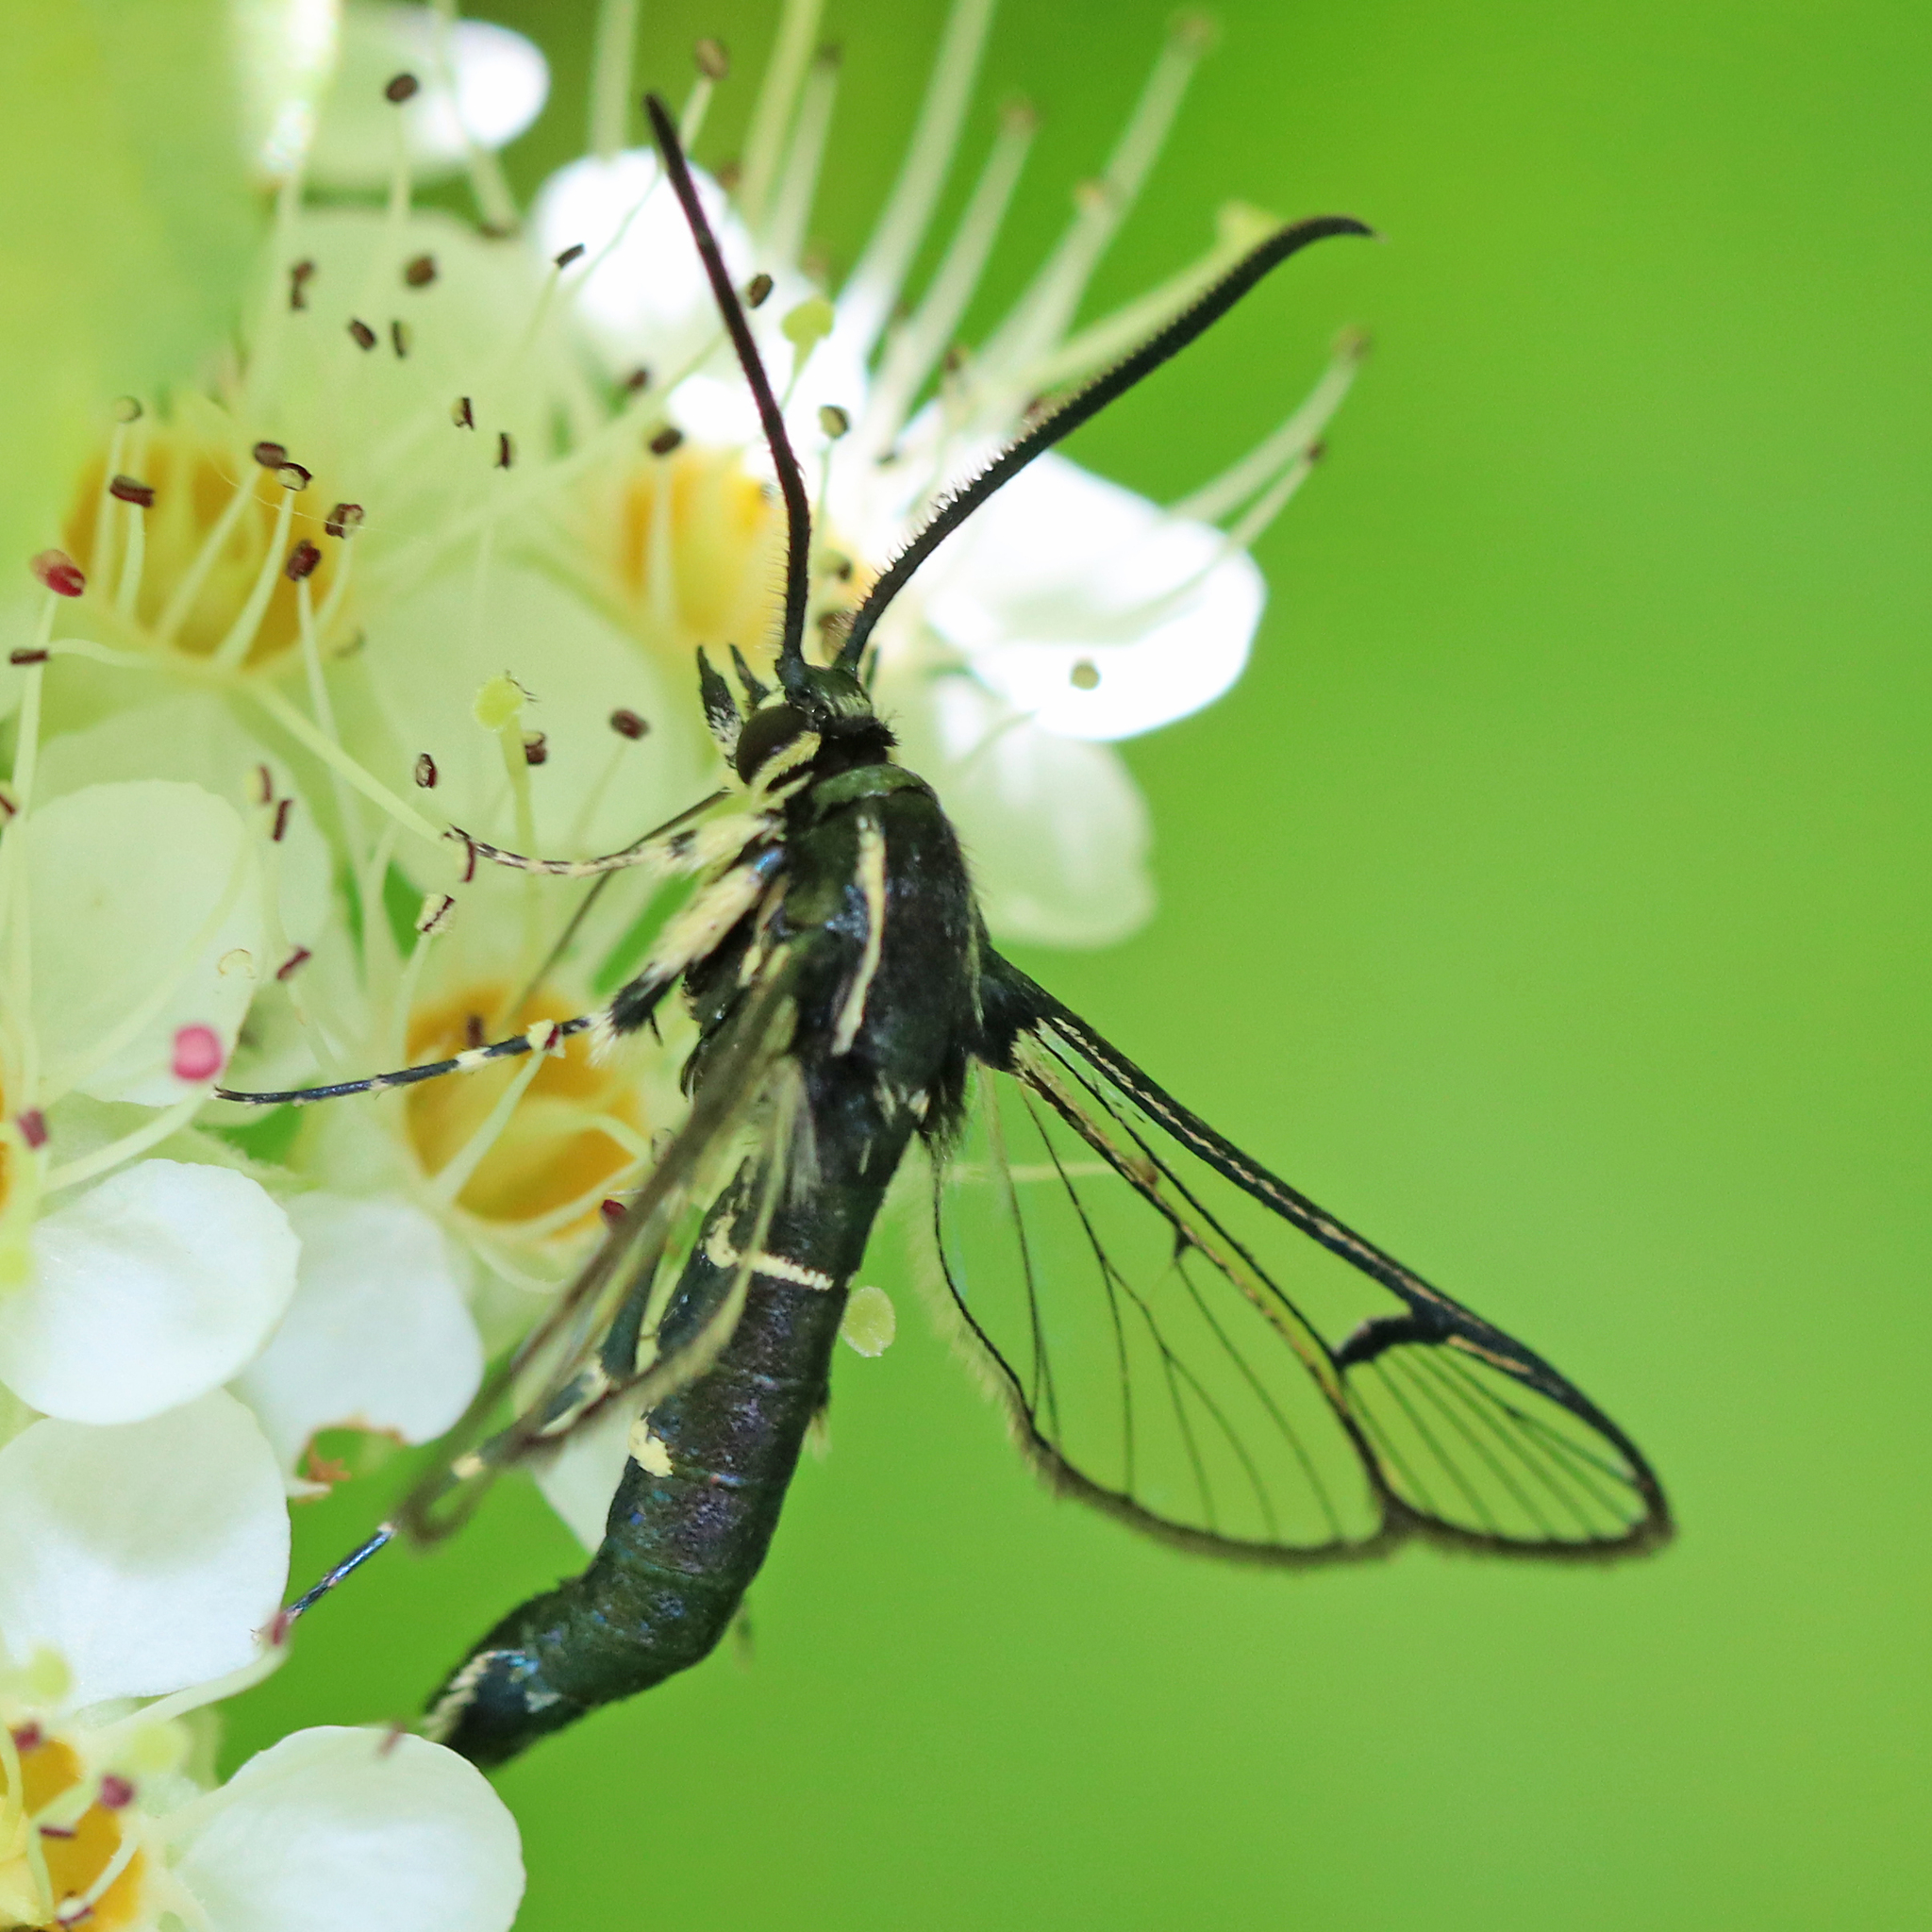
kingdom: Animalia
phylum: Arthropoda
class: Insecta
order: Lepidoptera
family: Sesiidae
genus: Synanthedon
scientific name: Synanthedon pictipes
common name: Lesser peachtree borer moth
